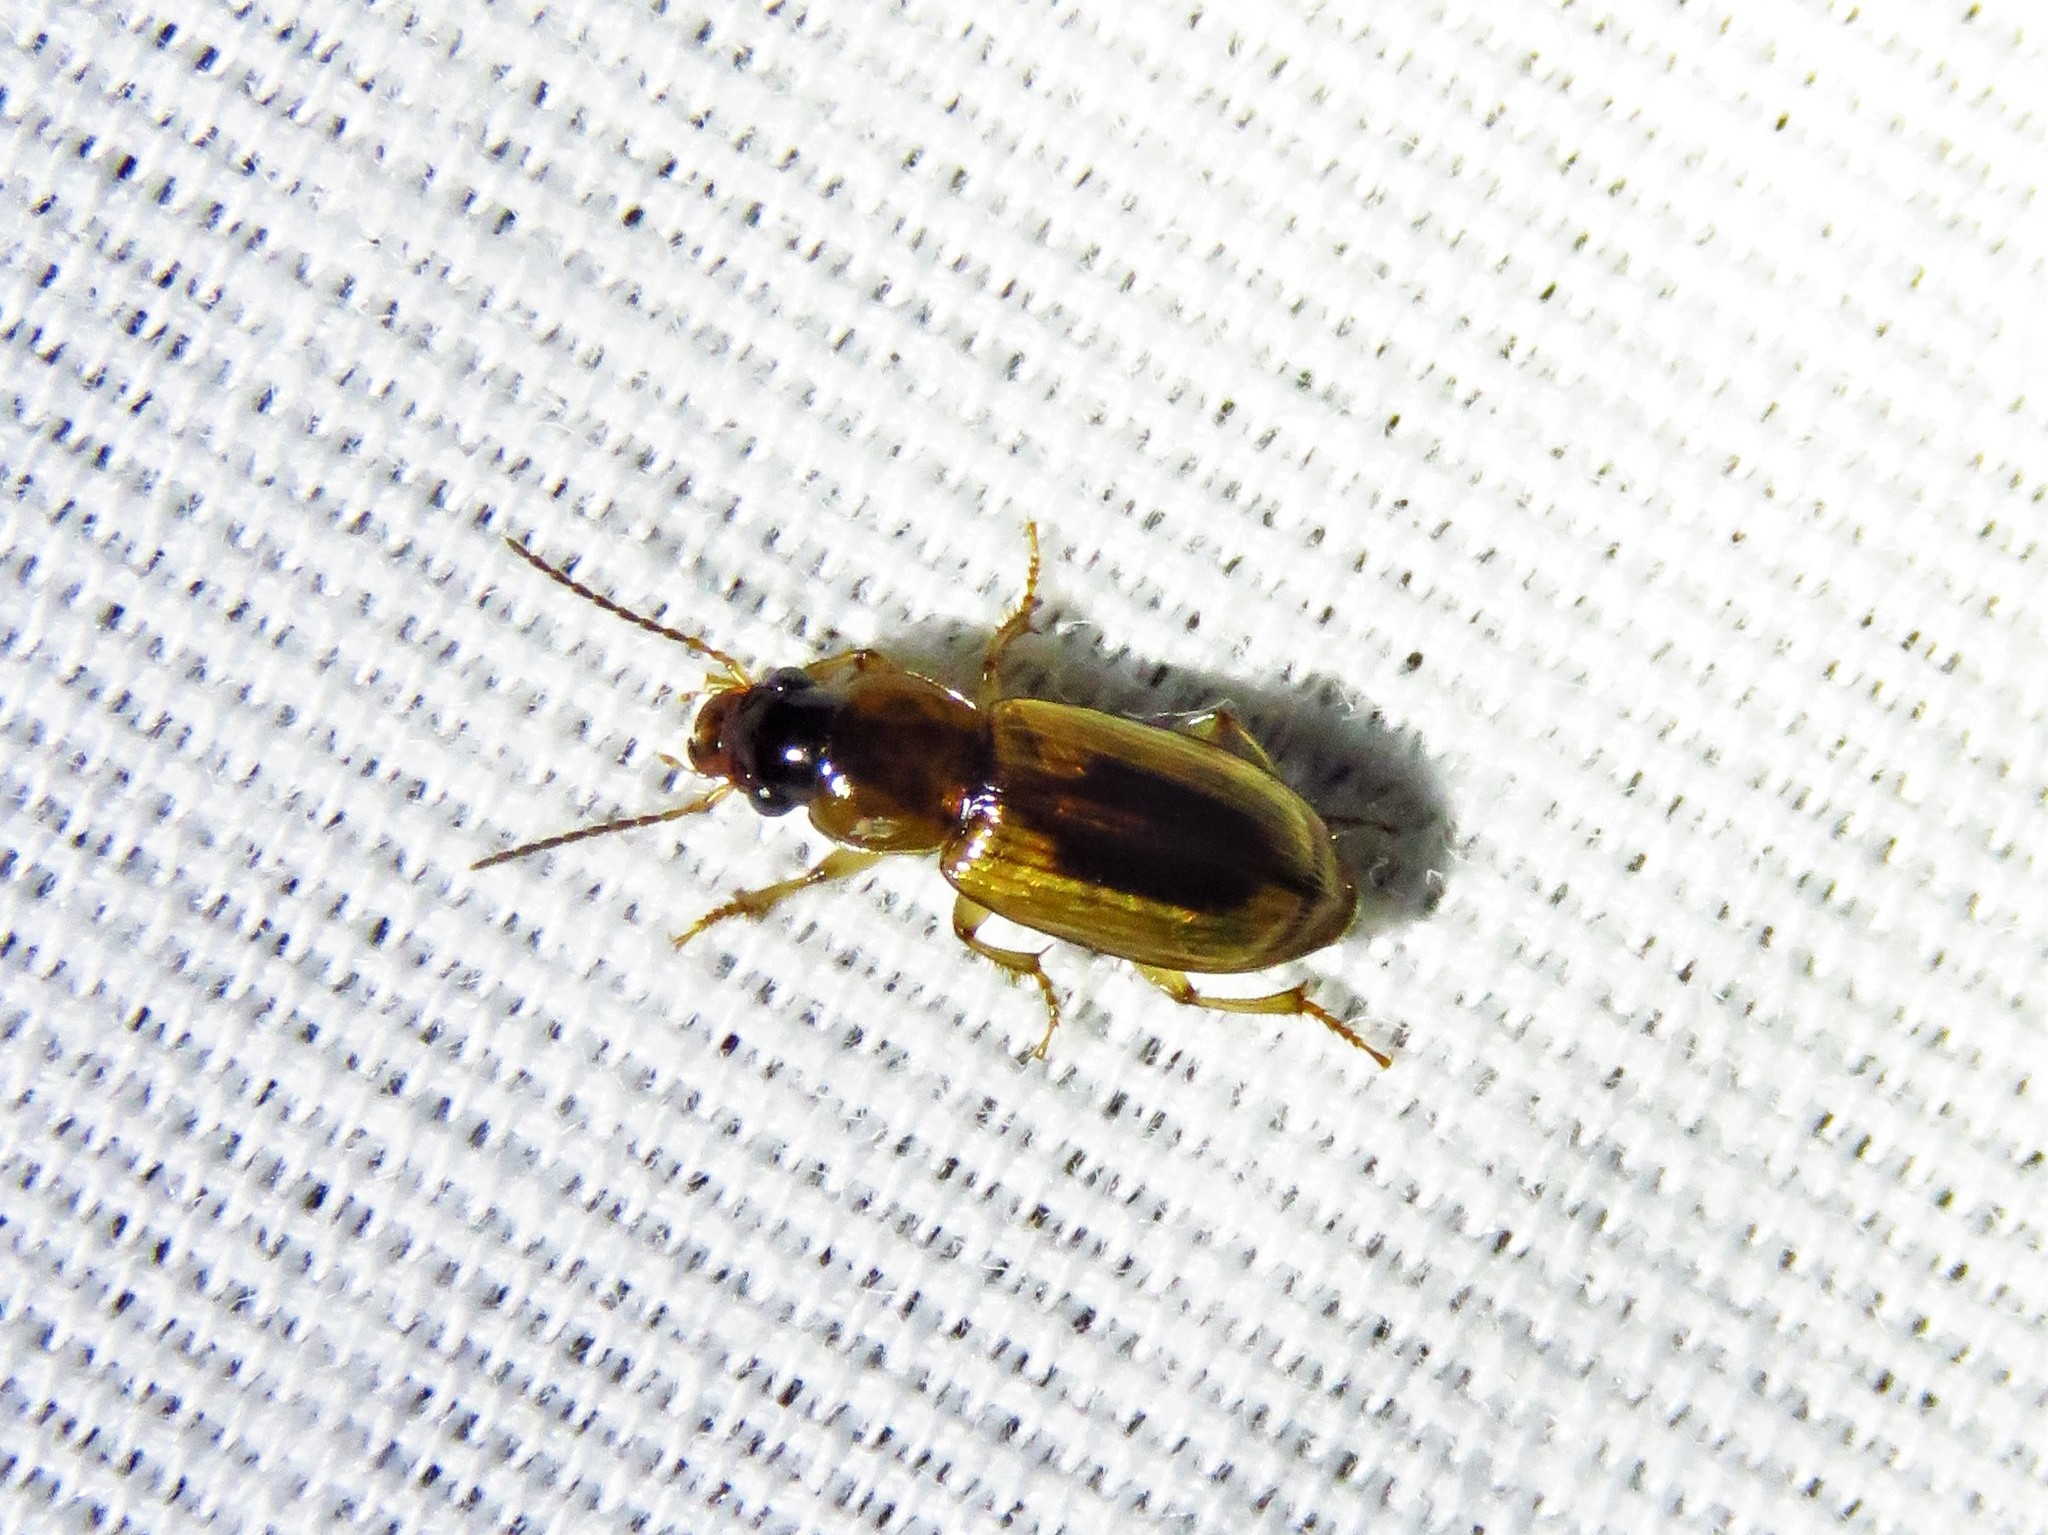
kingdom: Animalia
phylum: Arthropoda
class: Insecta
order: Coleoptera
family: Carabidae
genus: Stenolophus
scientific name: Stenolophus lecontei
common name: Leconte's seedcorn beetle
